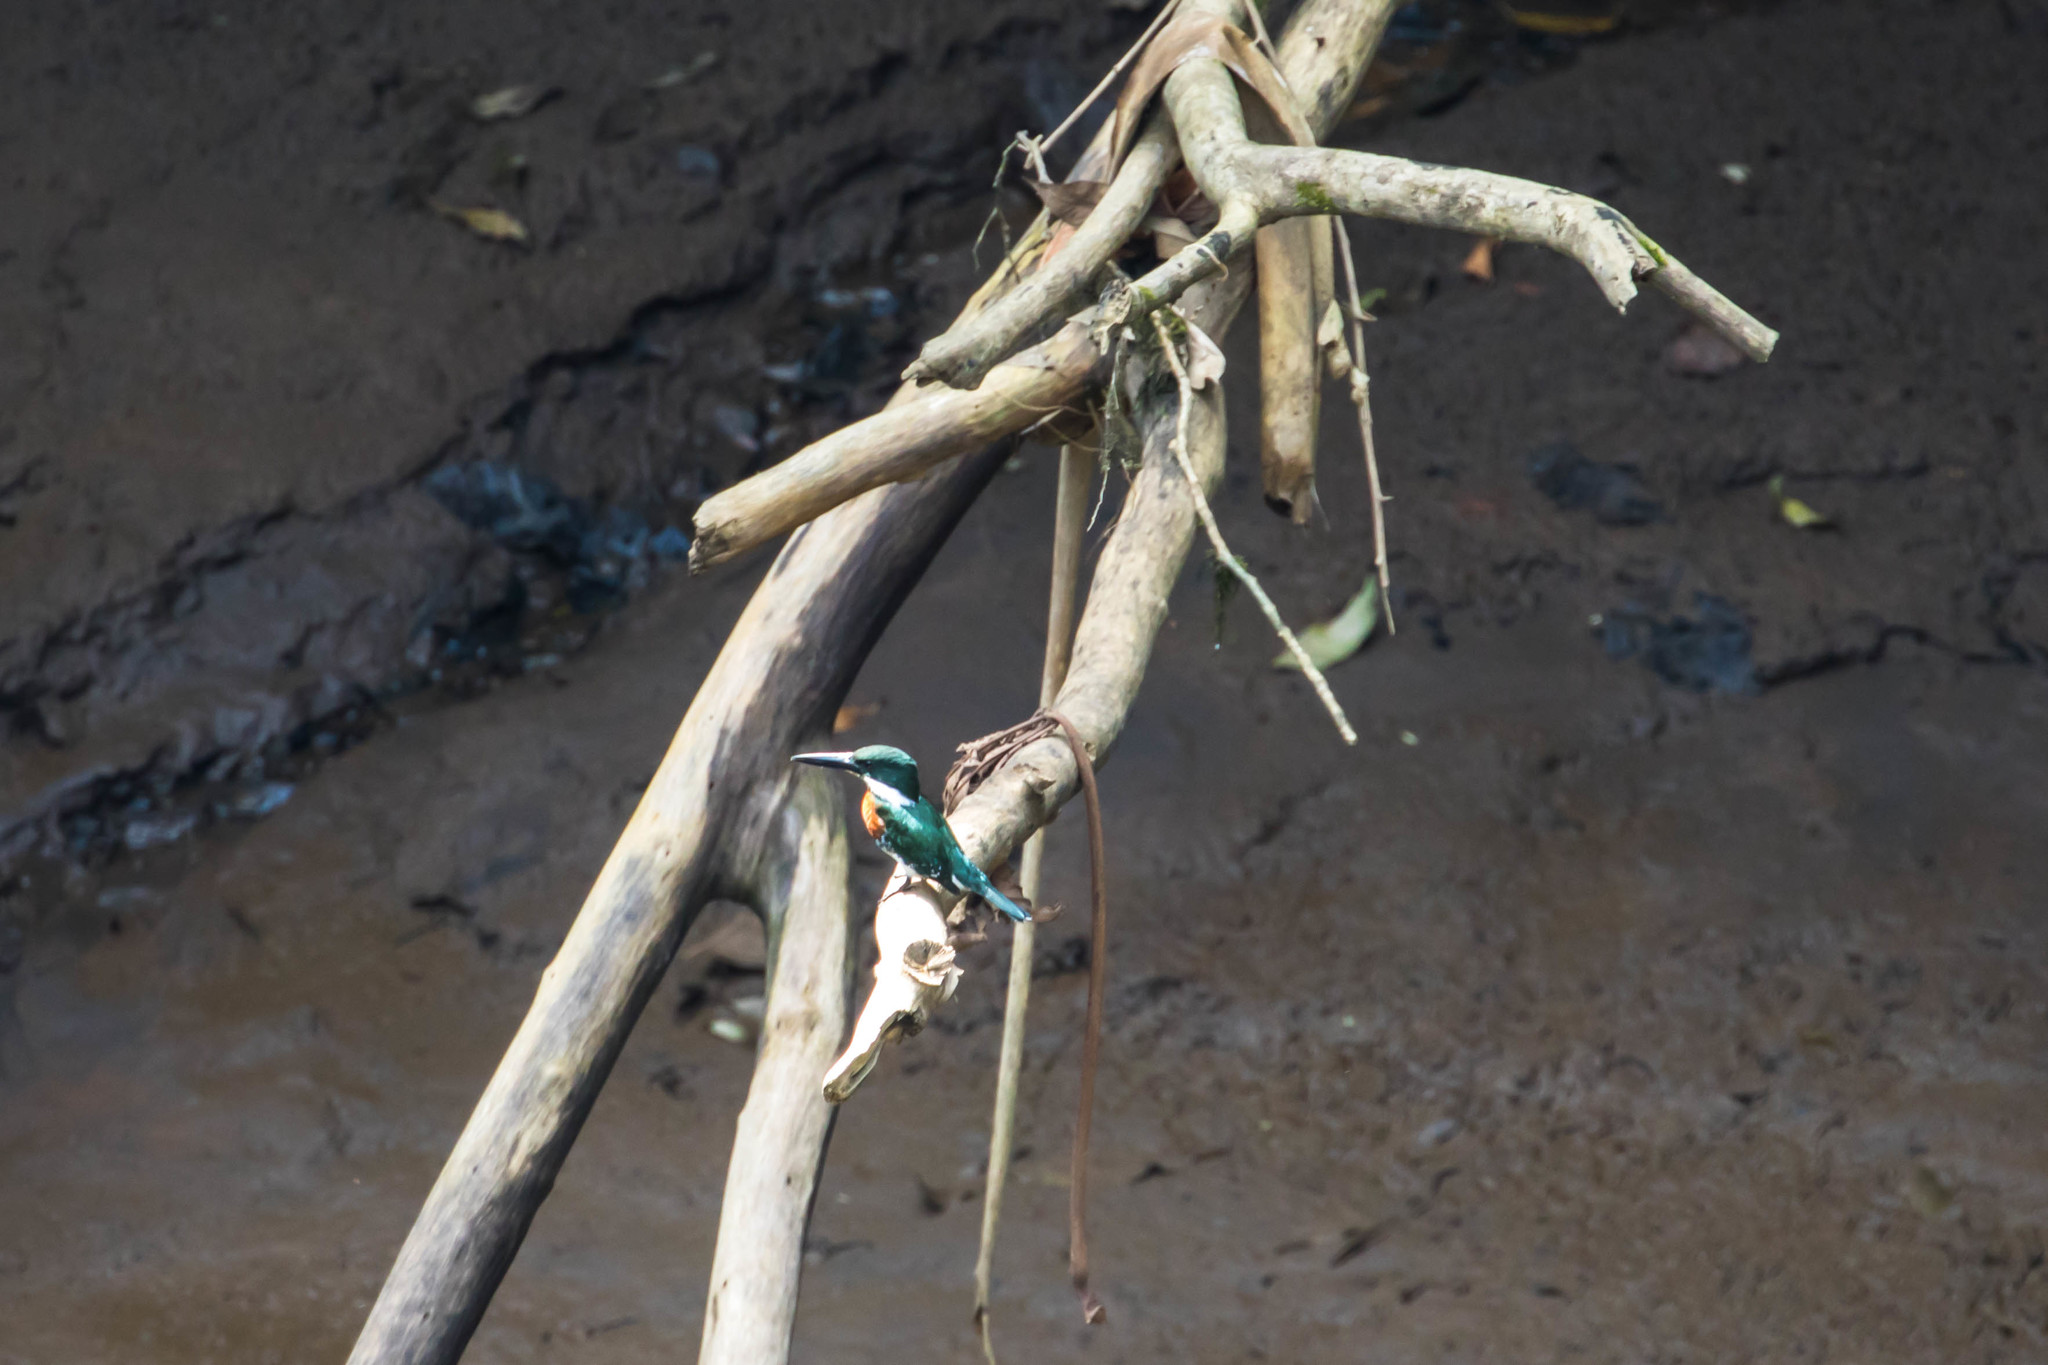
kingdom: Animalia
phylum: Chordata
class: Aves
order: Coraciiformes
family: Alcedinidae
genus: Chloroceryle
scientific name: Chloroceryle americana
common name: Green kingfisher
